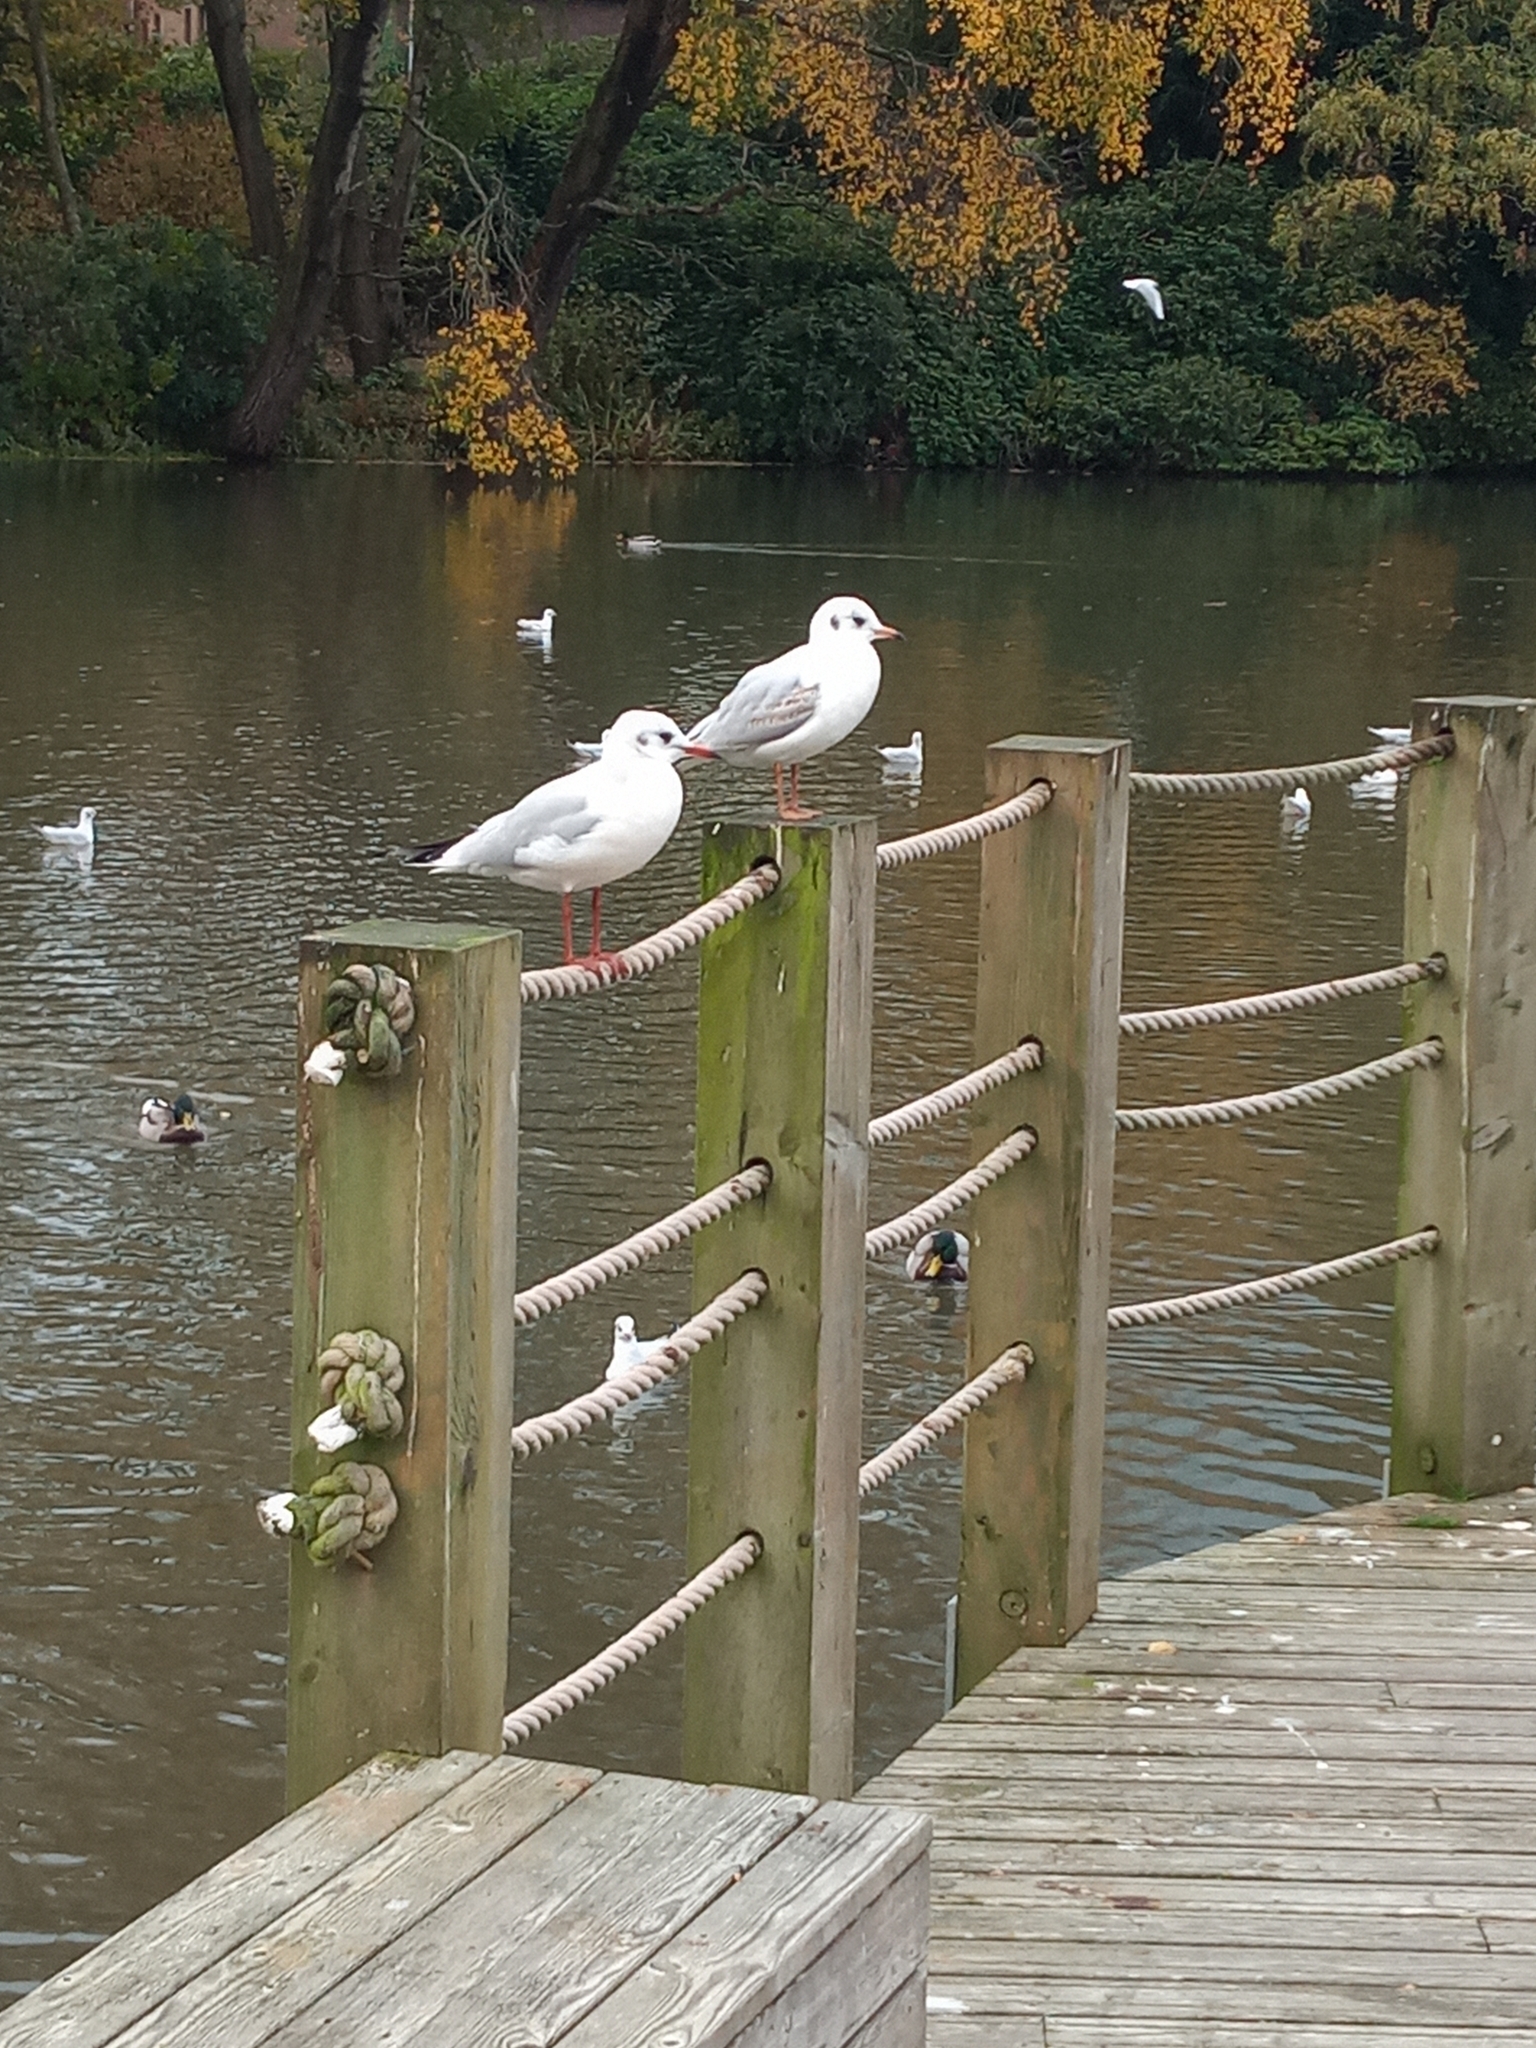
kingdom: Animalia
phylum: Chordata
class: Aves
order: Charadriiformes
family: Laridae
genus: Chroicocephalus
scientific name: Chroicocephalus ridibundus
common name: Black-headed gull
